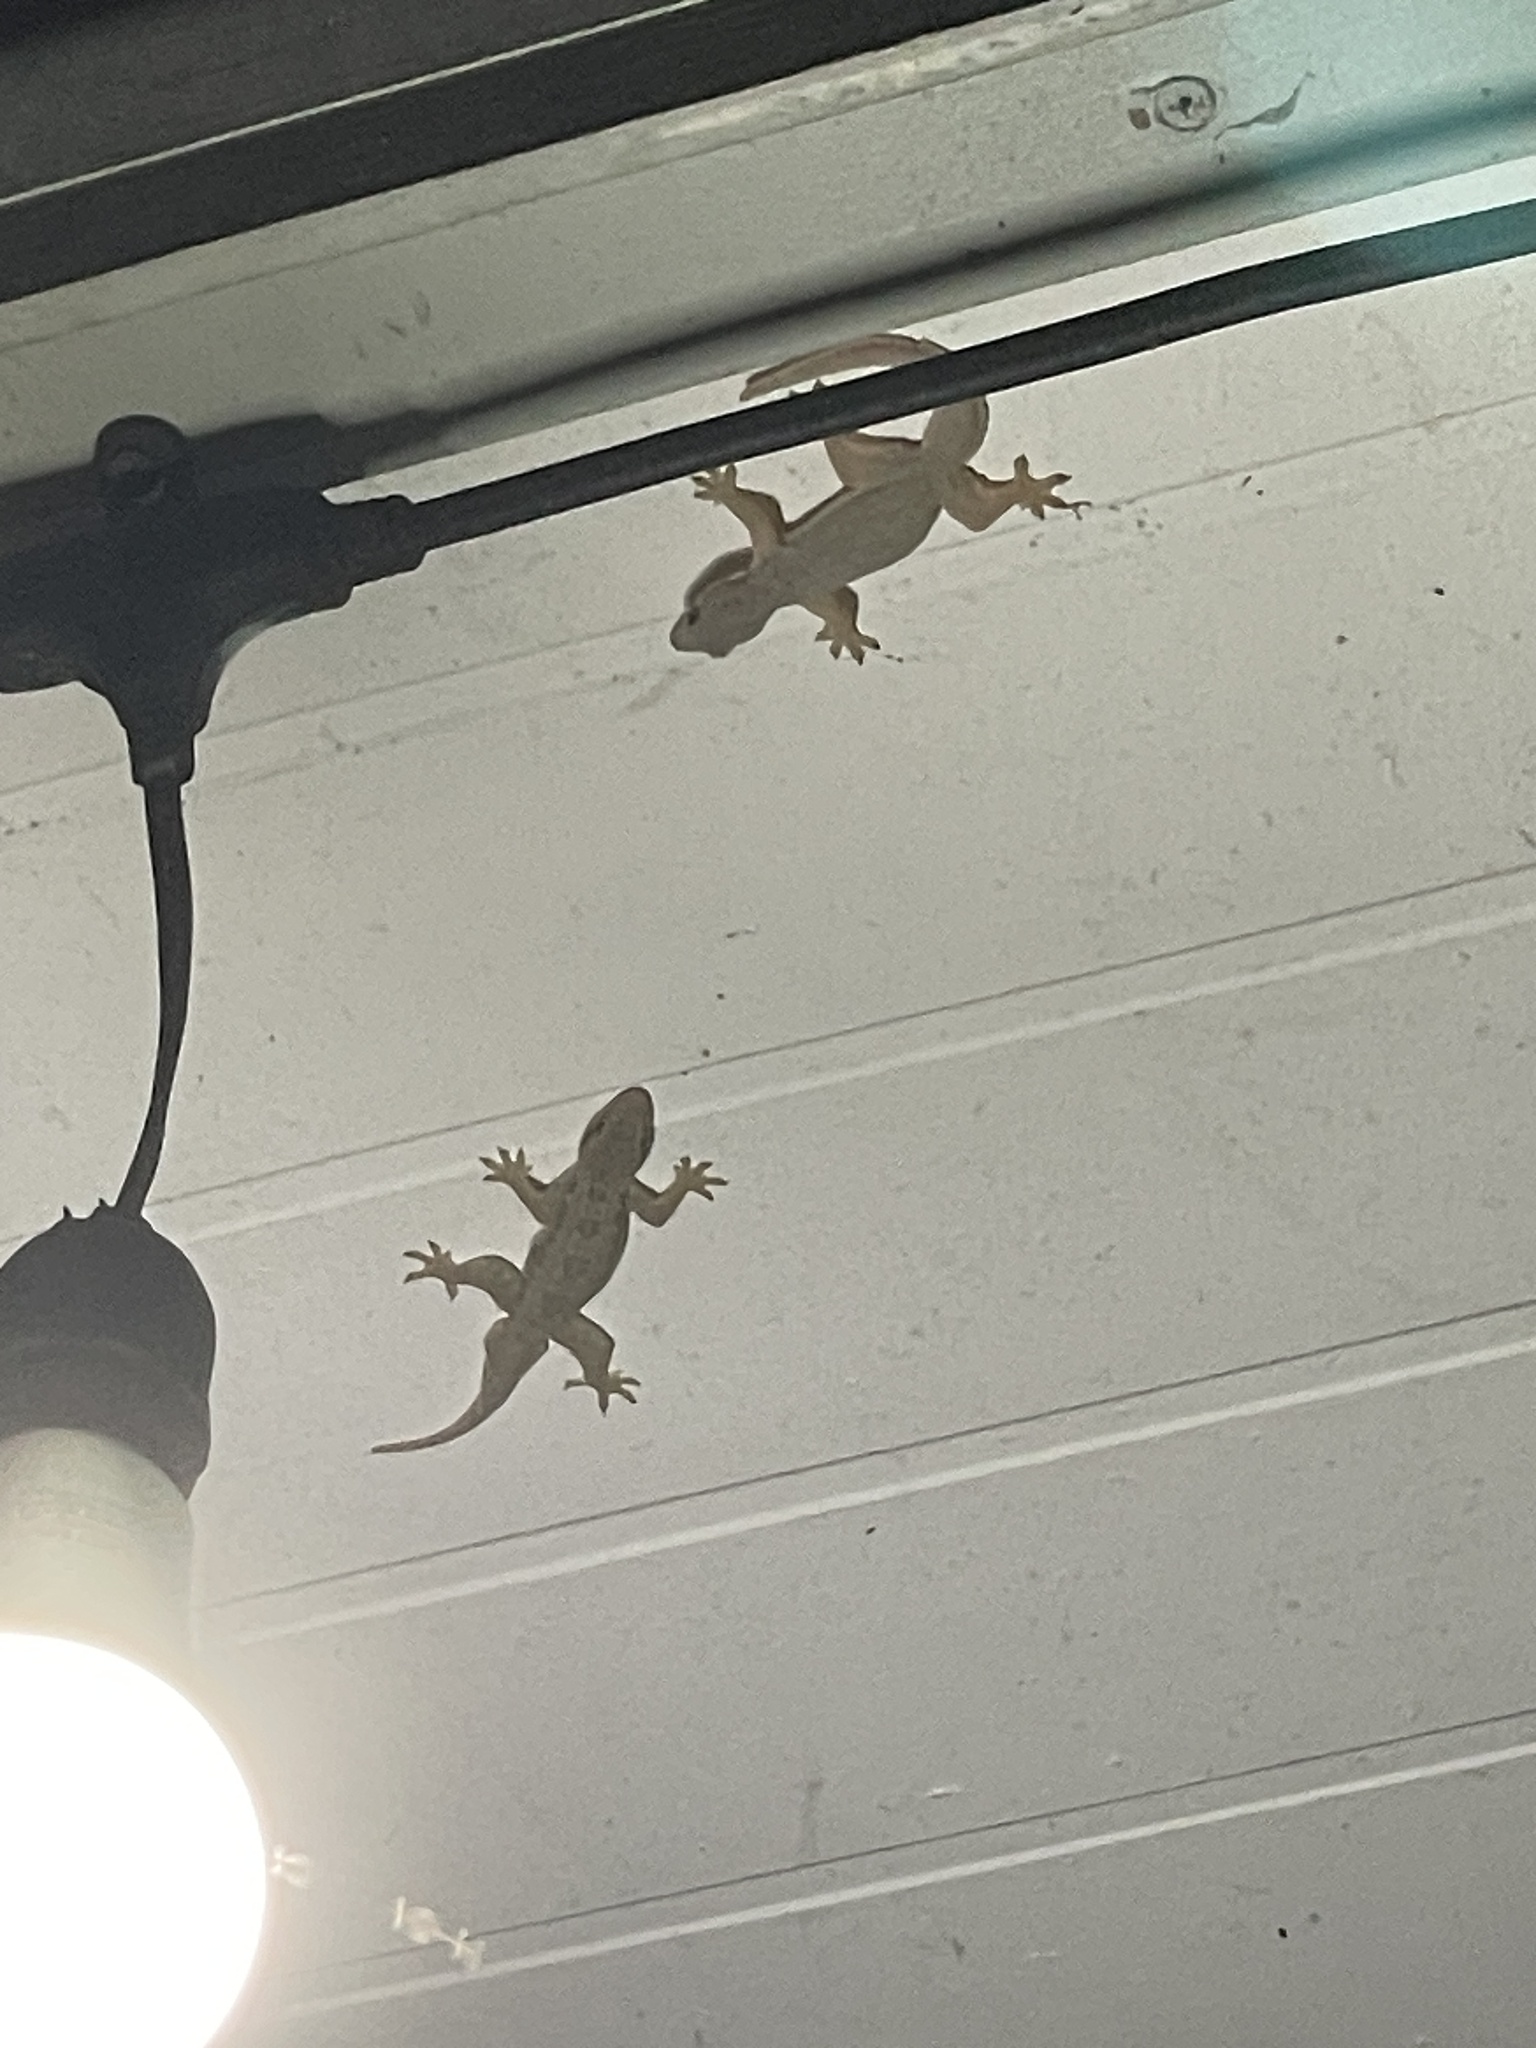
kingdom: Animalia
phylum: Chordata
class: Squamata
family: Gekkonidae
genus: Hemidactylus
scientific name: Hemidactylus platyurus
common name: Flat-tailed house gecko
